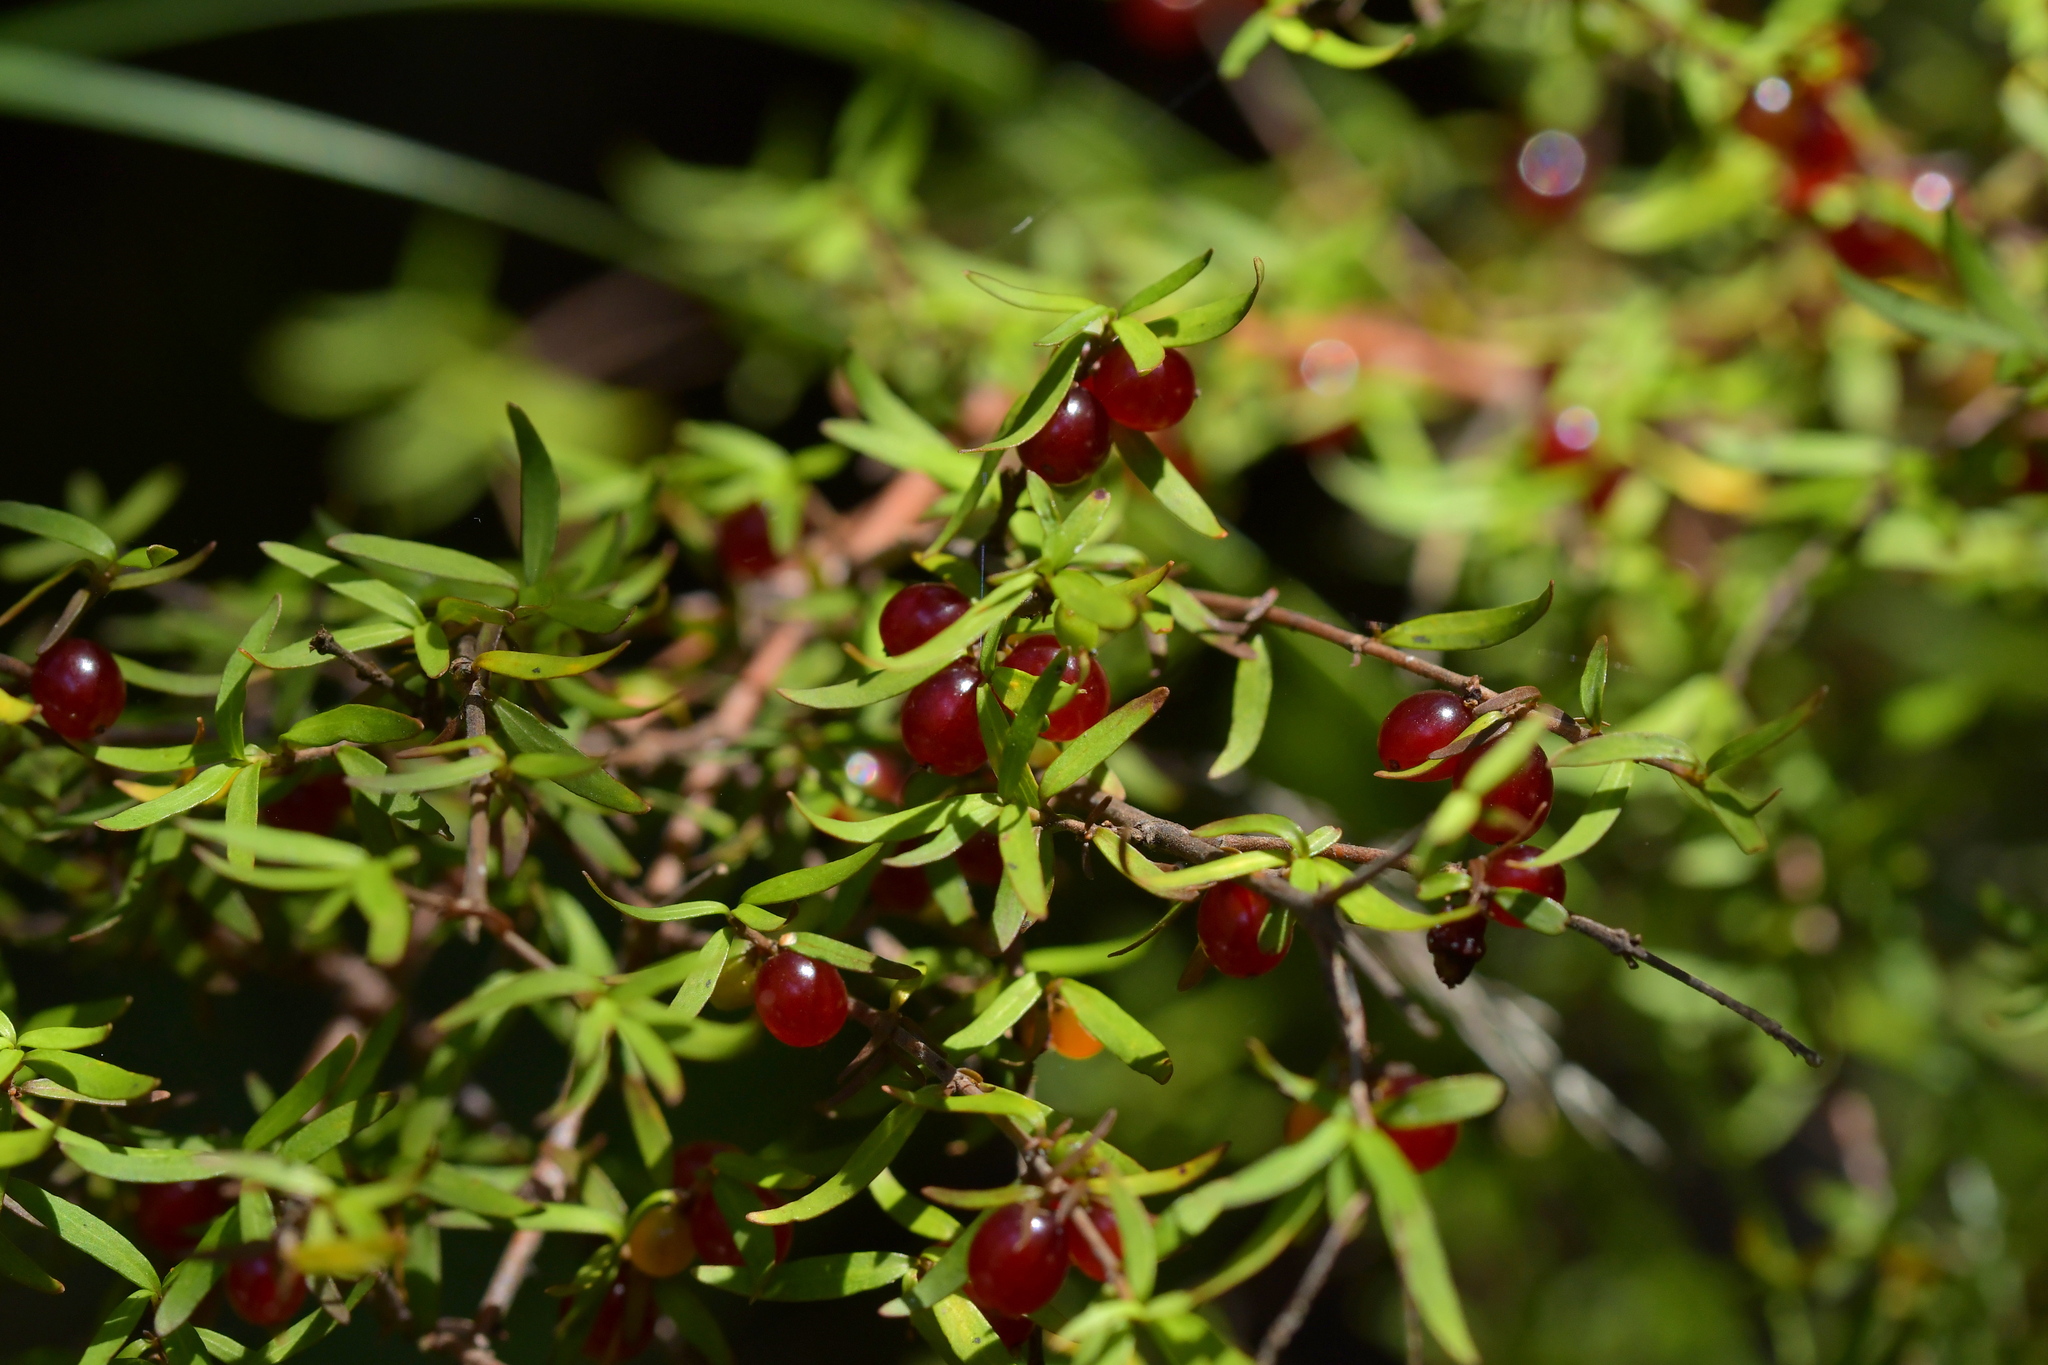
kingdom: Plantae
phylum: Tracheophyta
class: Magnoliopsida
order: Gentianales
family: Rubiaceae
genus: Coprosma
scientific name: Coprosma rhamnoides
